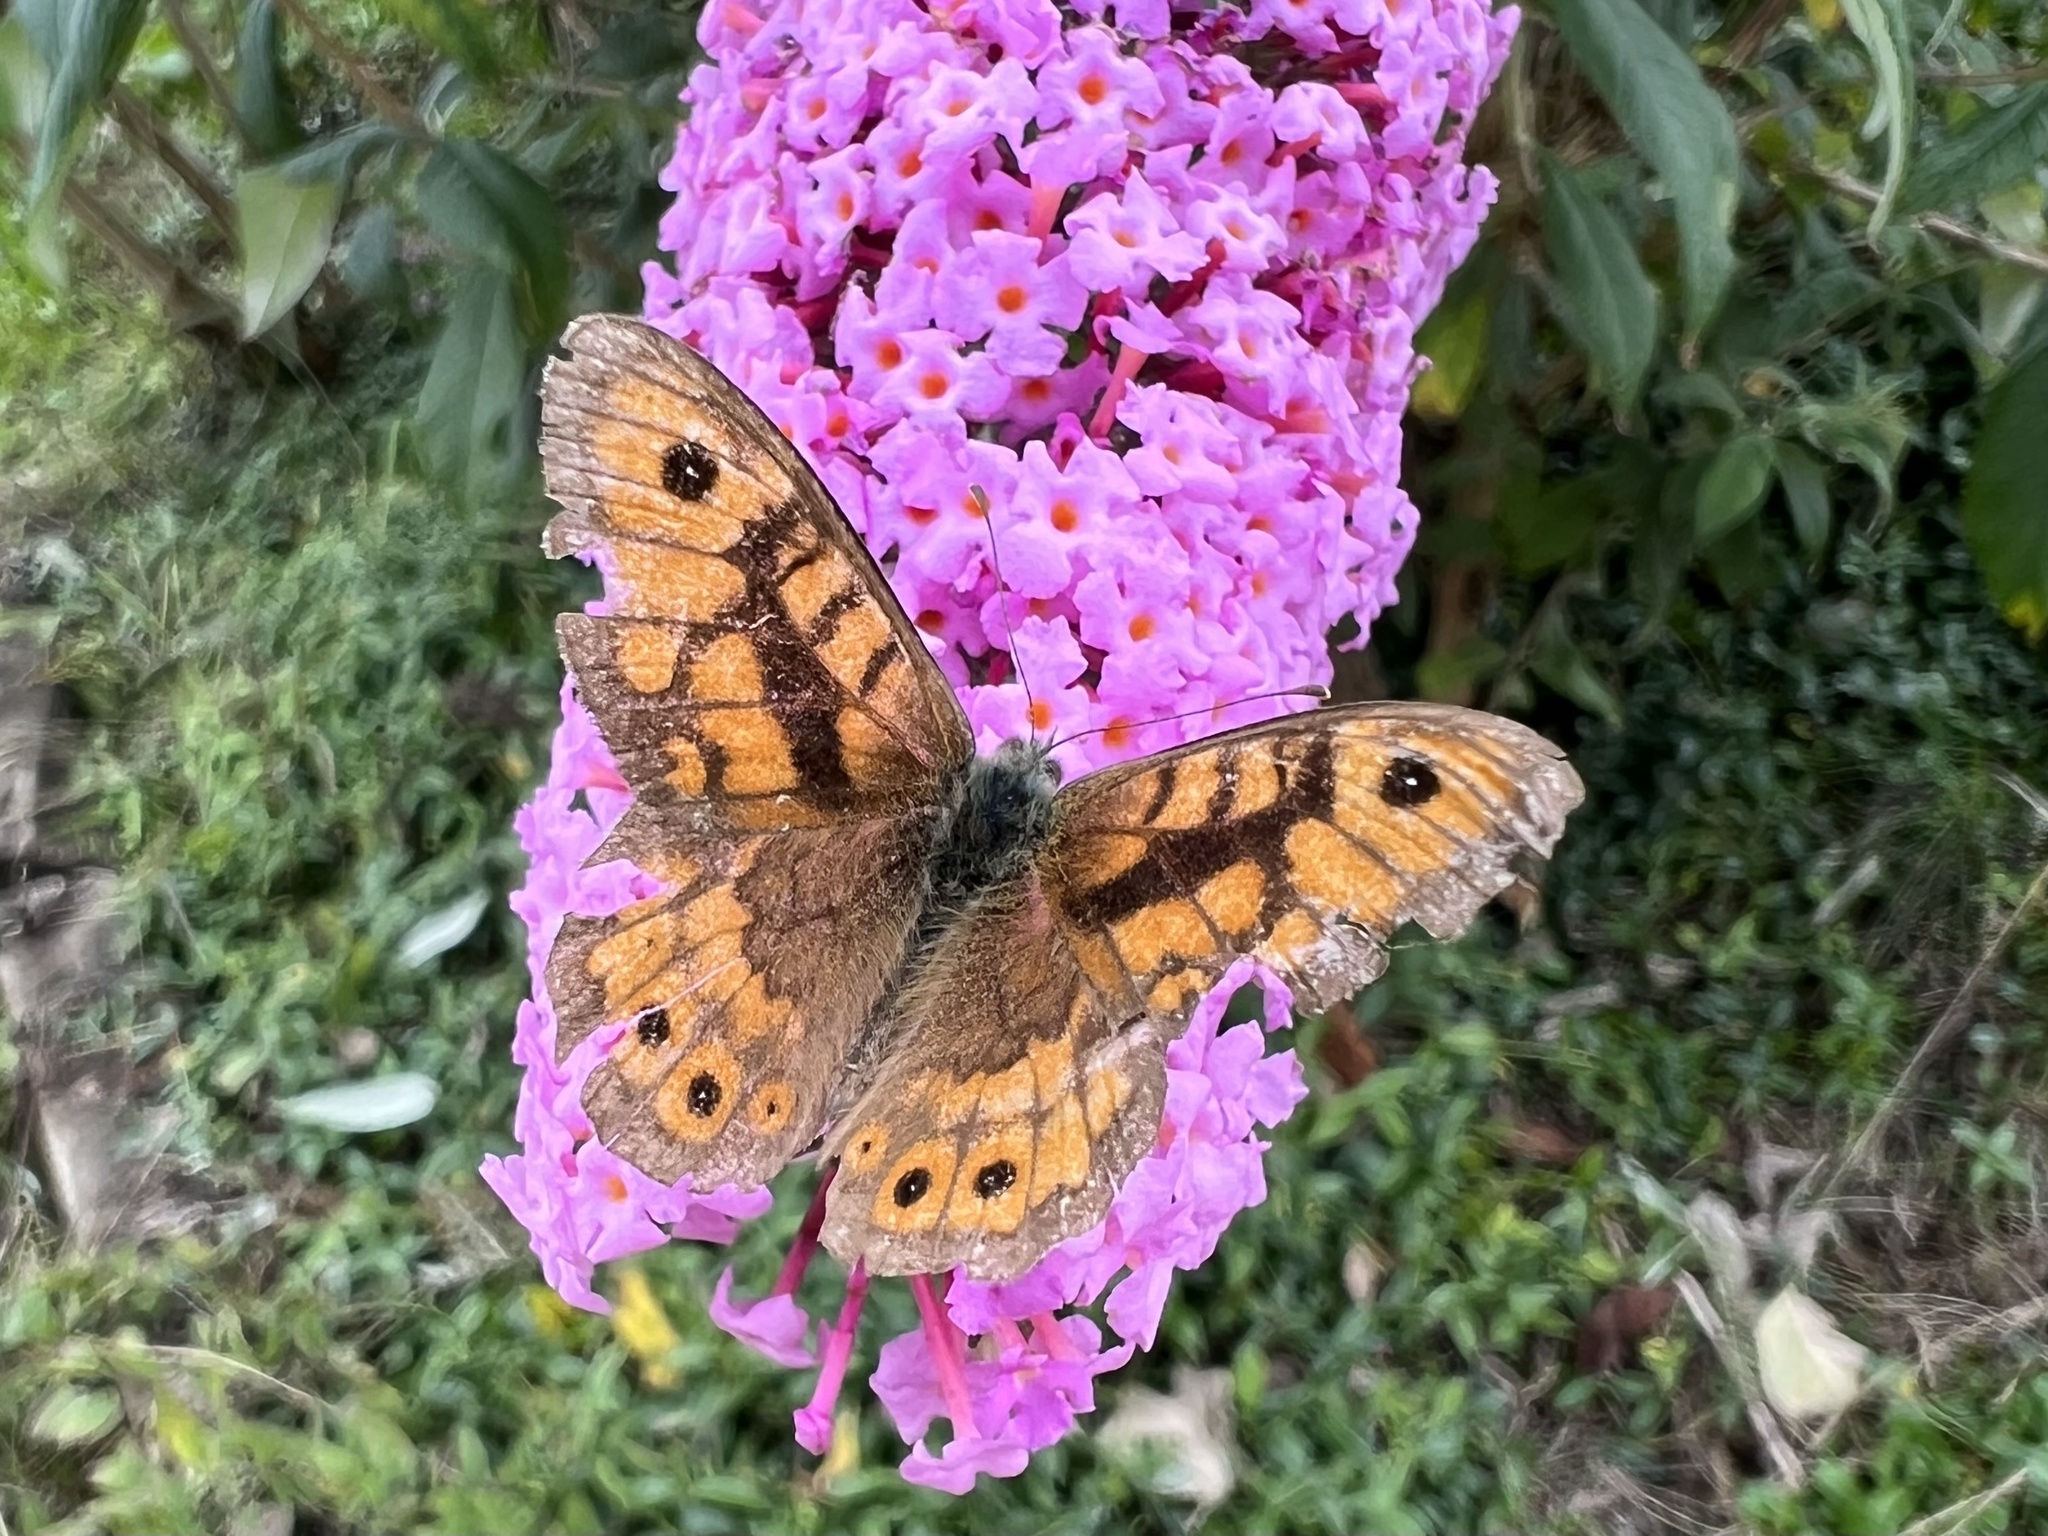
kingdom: Animalia
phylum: Arthropoda
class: Insecta
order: Lepidoptera
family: Nymphalidae
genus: Pararge
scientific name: Pararge Lasiommata megera
